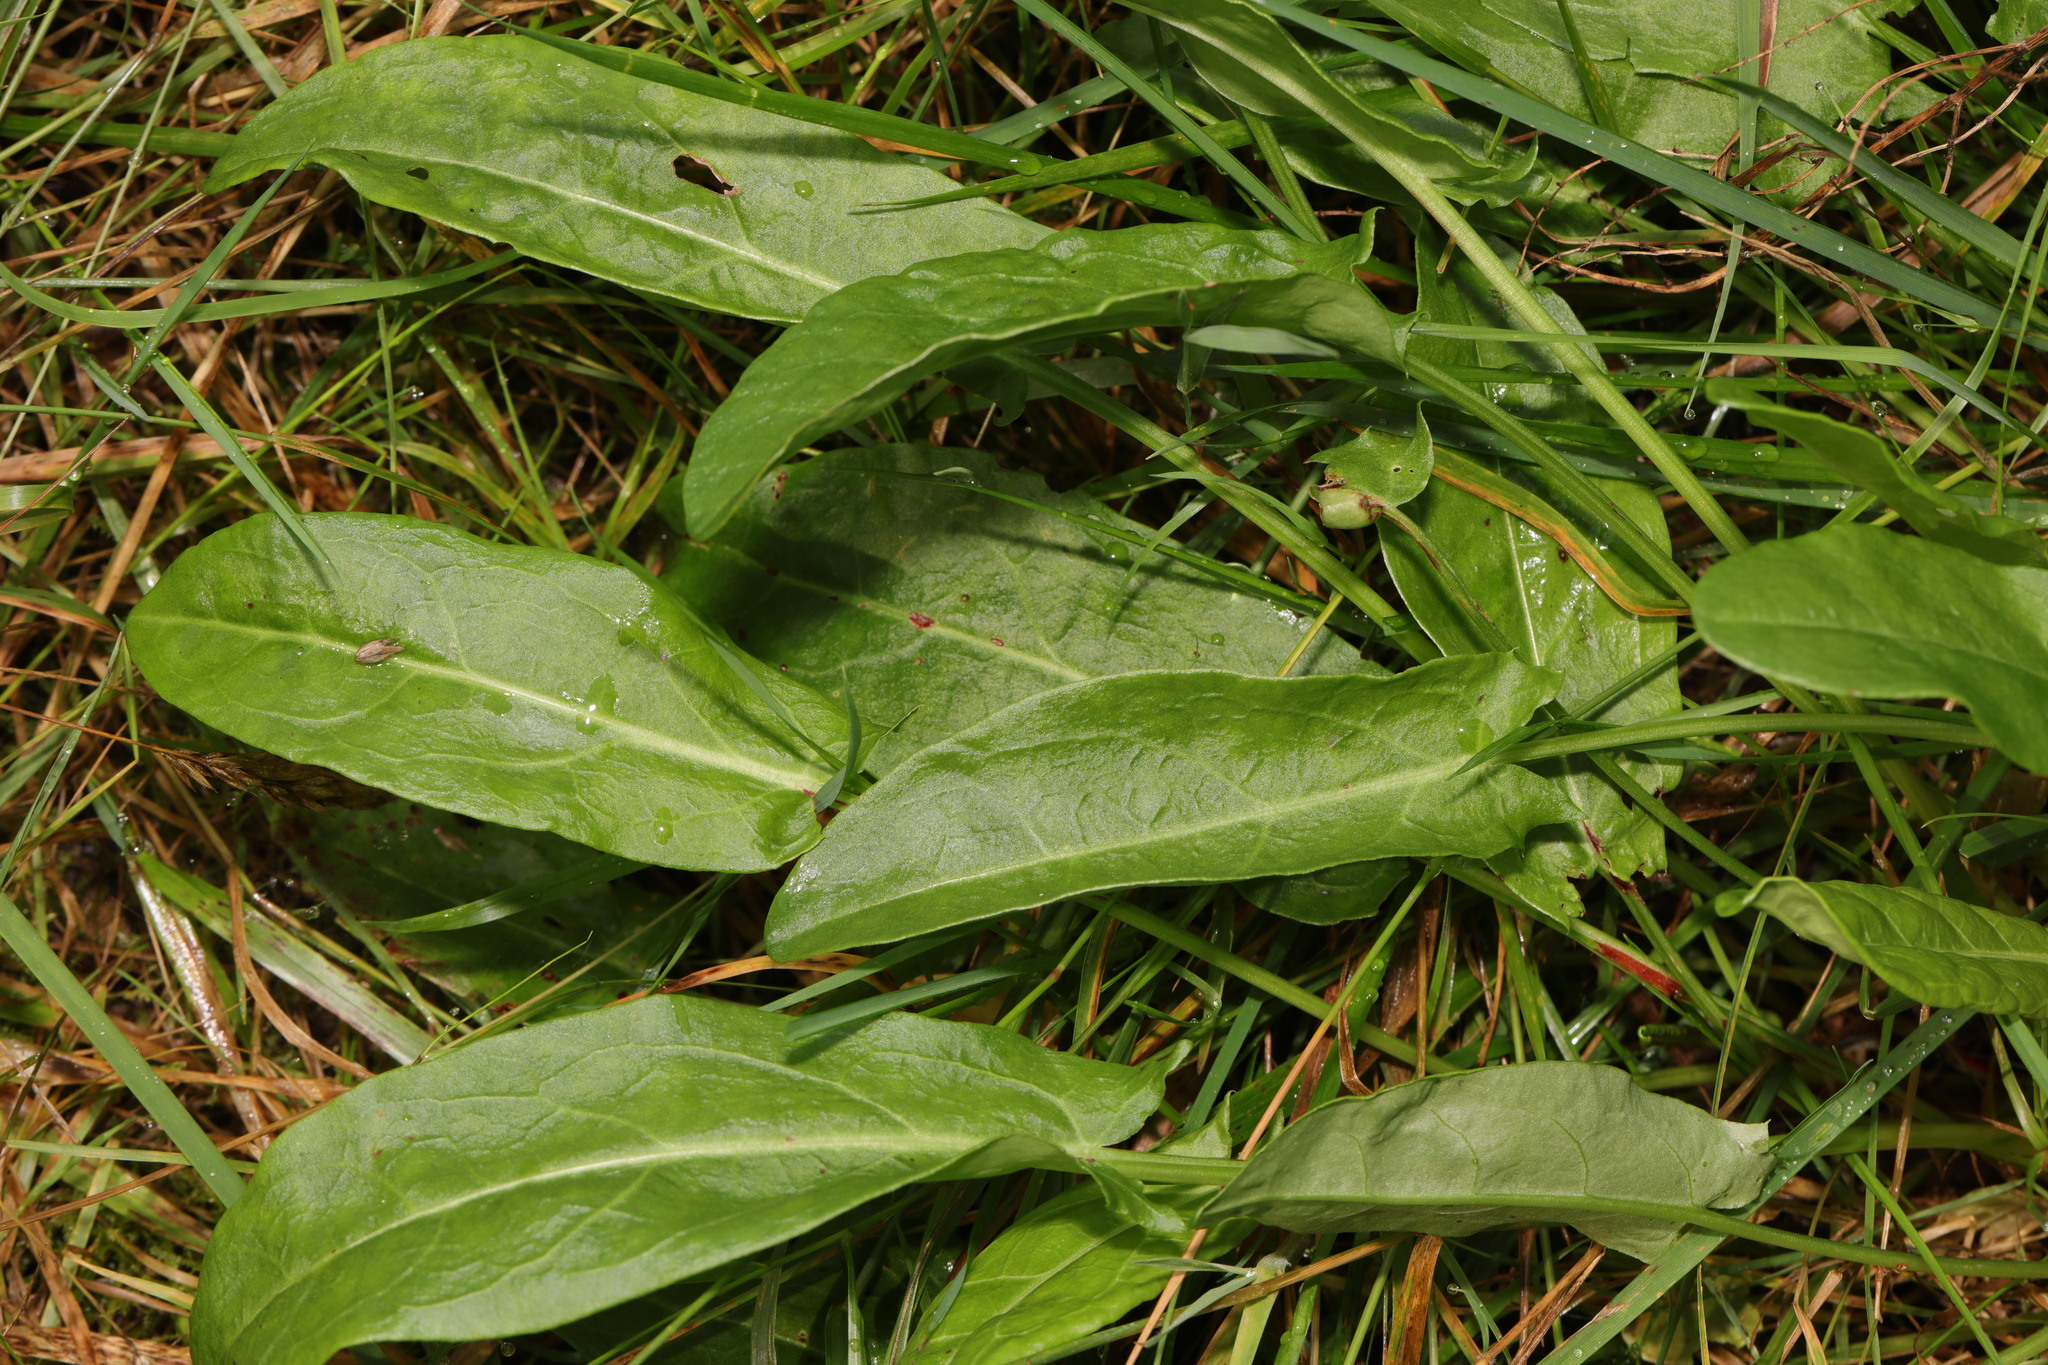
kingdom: Plantae
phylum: Tracheophyta
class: Magnoliopsida
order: Caryophyllales
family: Polygonaceae
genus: Rumex
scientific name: Rumex acetosa
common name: Garden sorrel
